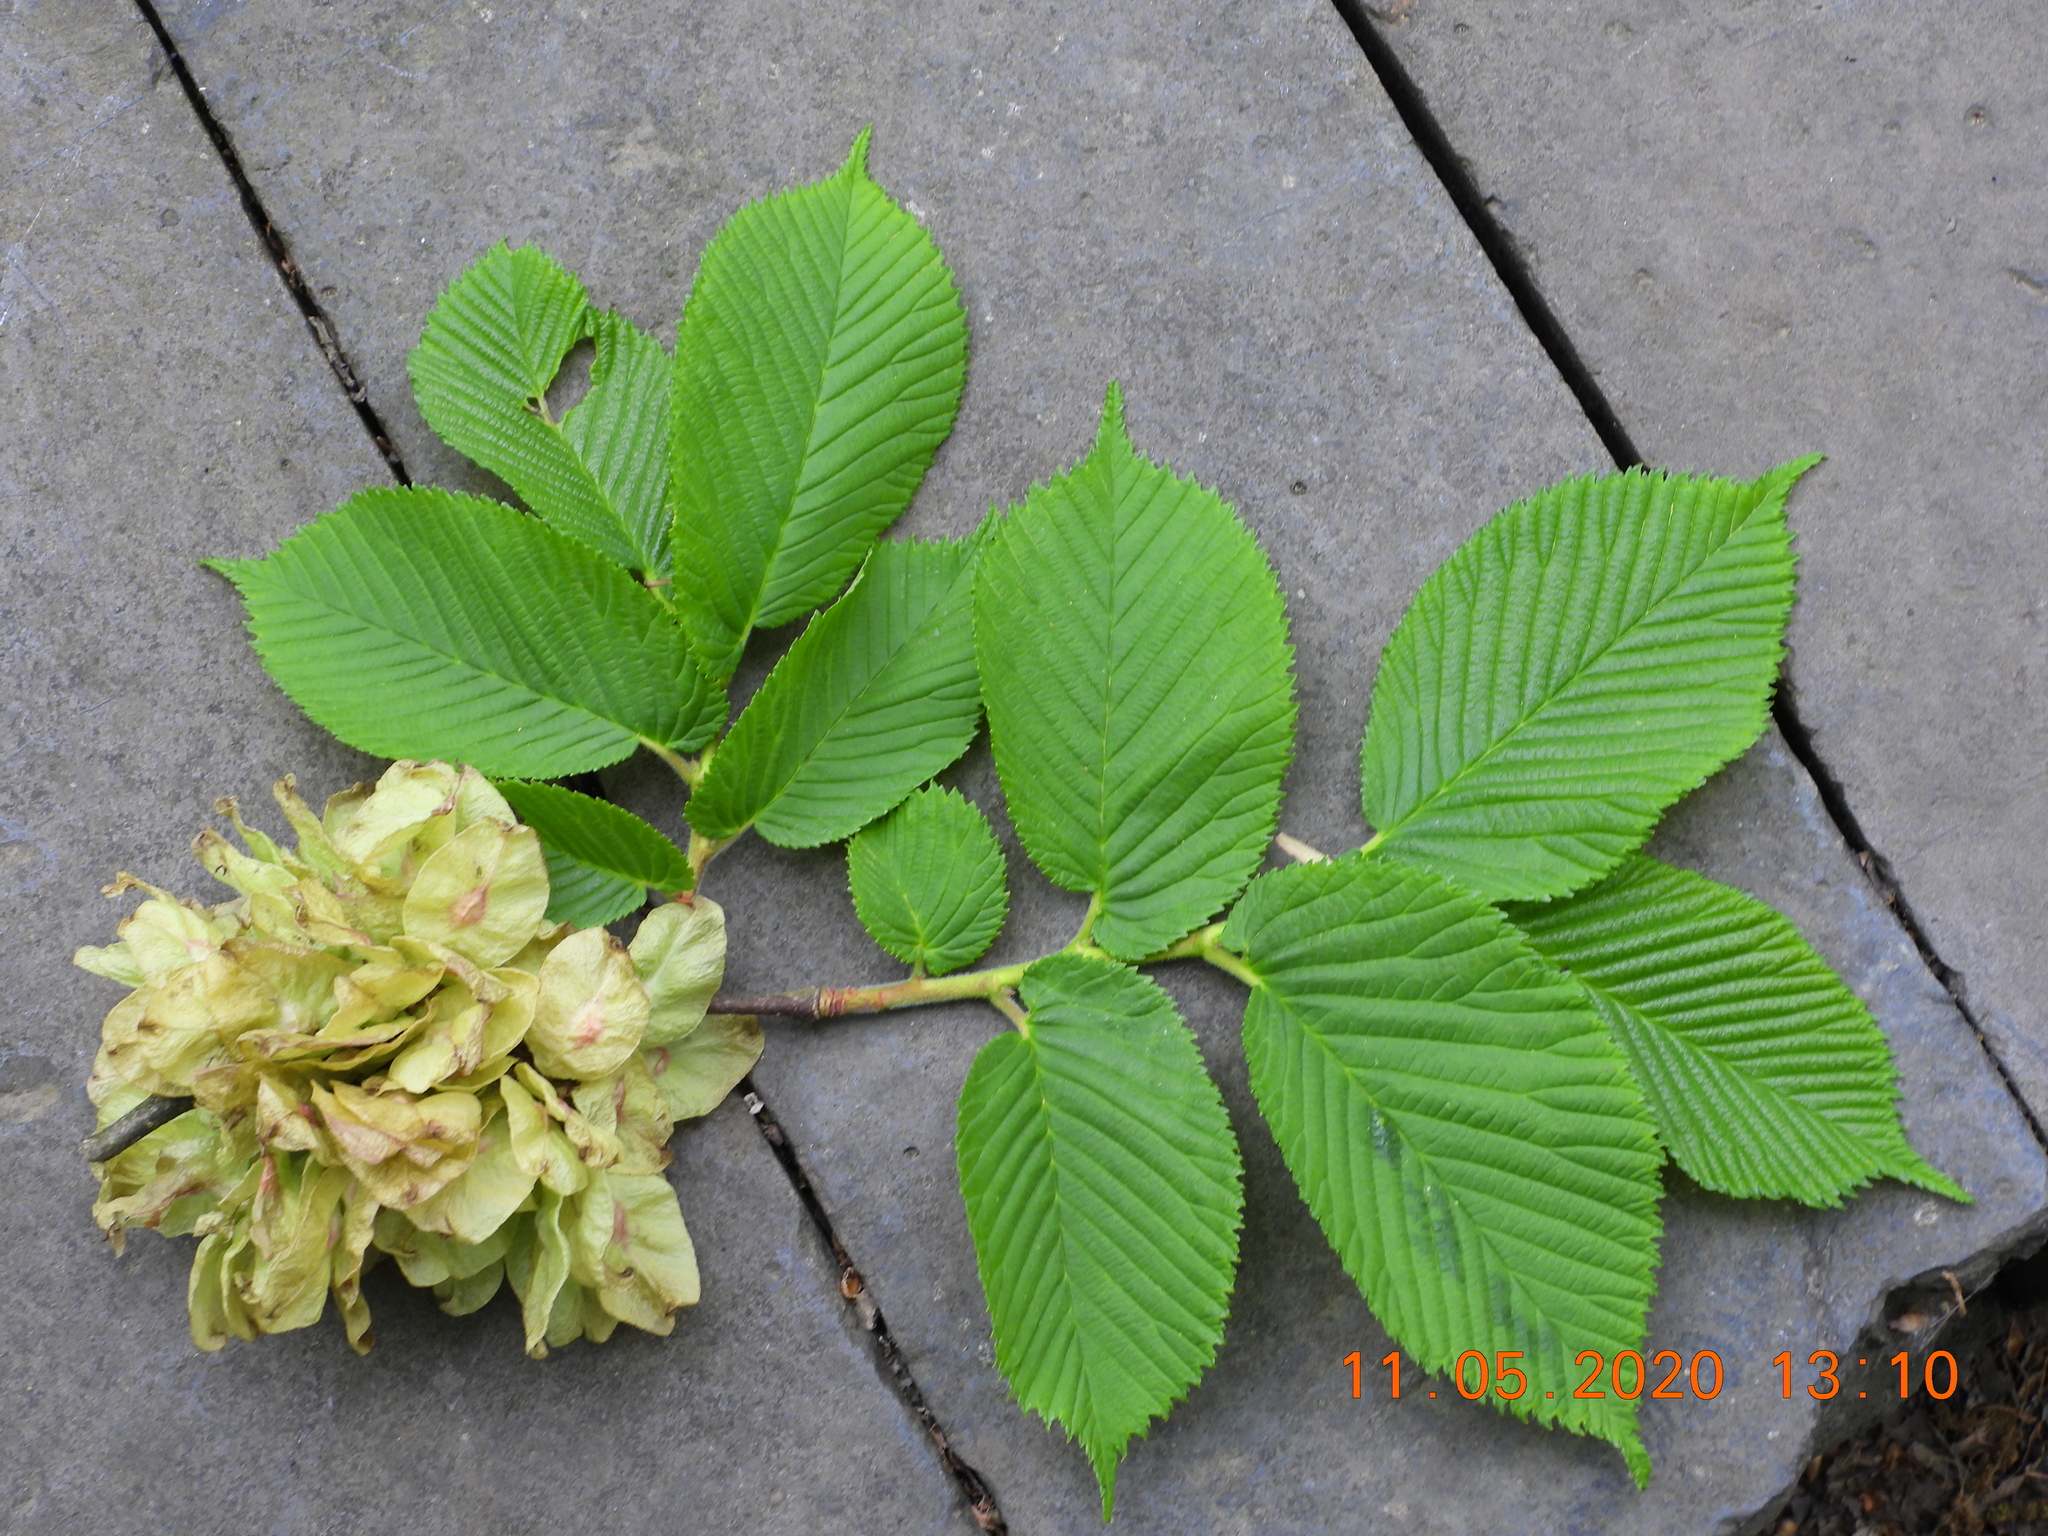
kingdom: Plantae
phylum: Tracheophyta
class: Magnoliopsida
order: Rosales
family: Ulmaceae
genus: Ulmus
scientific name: Ulmus glabra
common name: Wych elm
